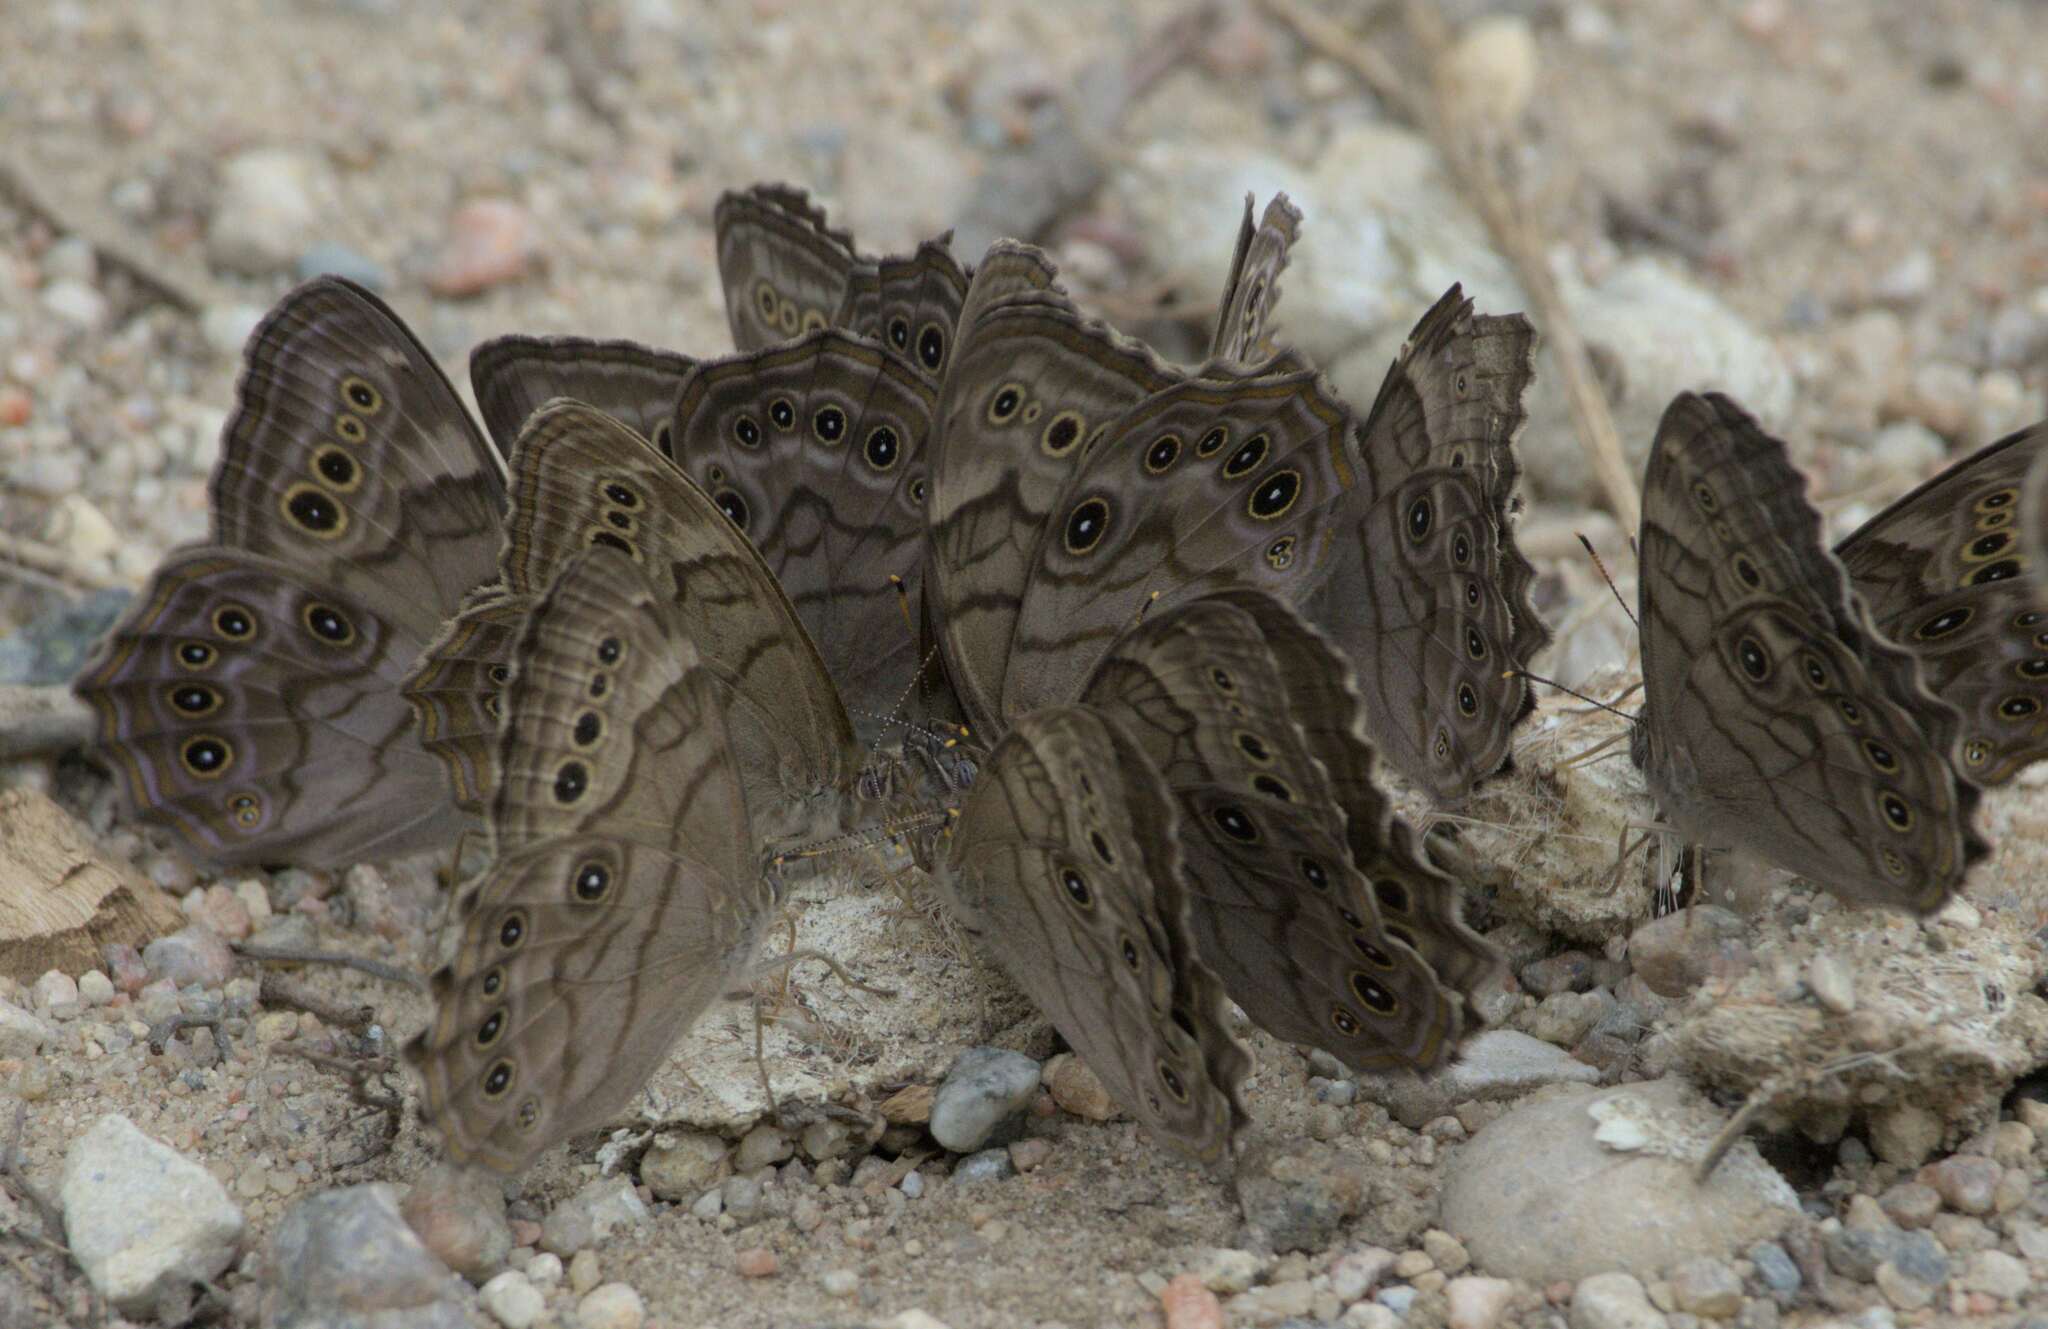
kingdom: Animalia
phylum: Arthropoda
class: Insecta
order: Lepidoptera
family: Nymphalidae
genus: Lethe
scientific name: Lethe anthedon
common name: Northern pearly-eye
